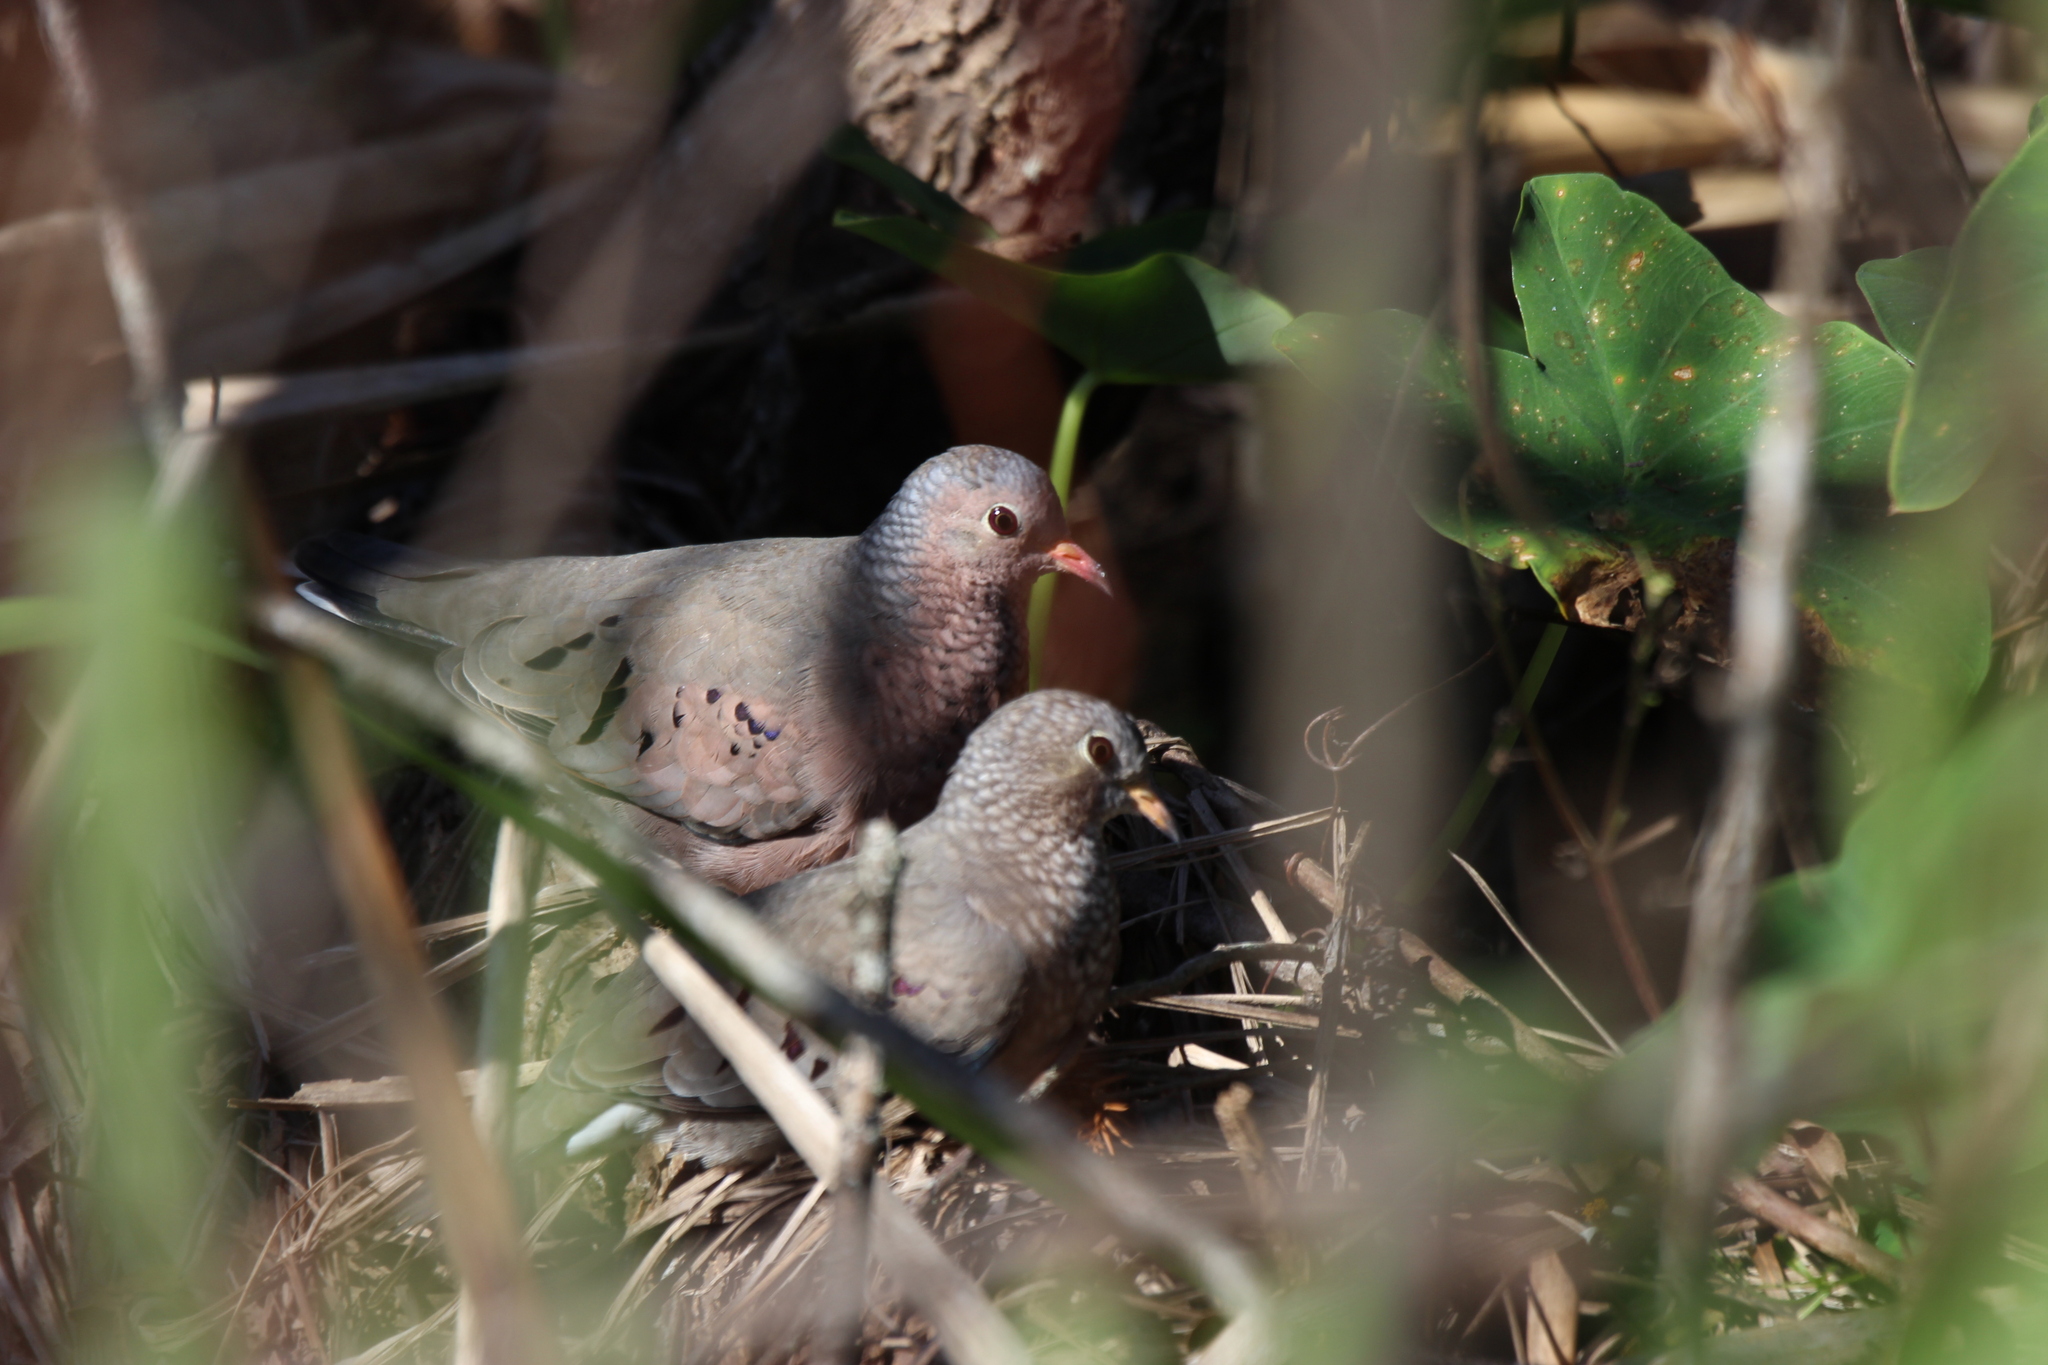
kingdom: Animalia
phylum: Chordata
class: Aves
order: Columbiformes
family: Columbidae
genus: Columbina
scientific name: Columbina passerina
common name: Common ground-dove
